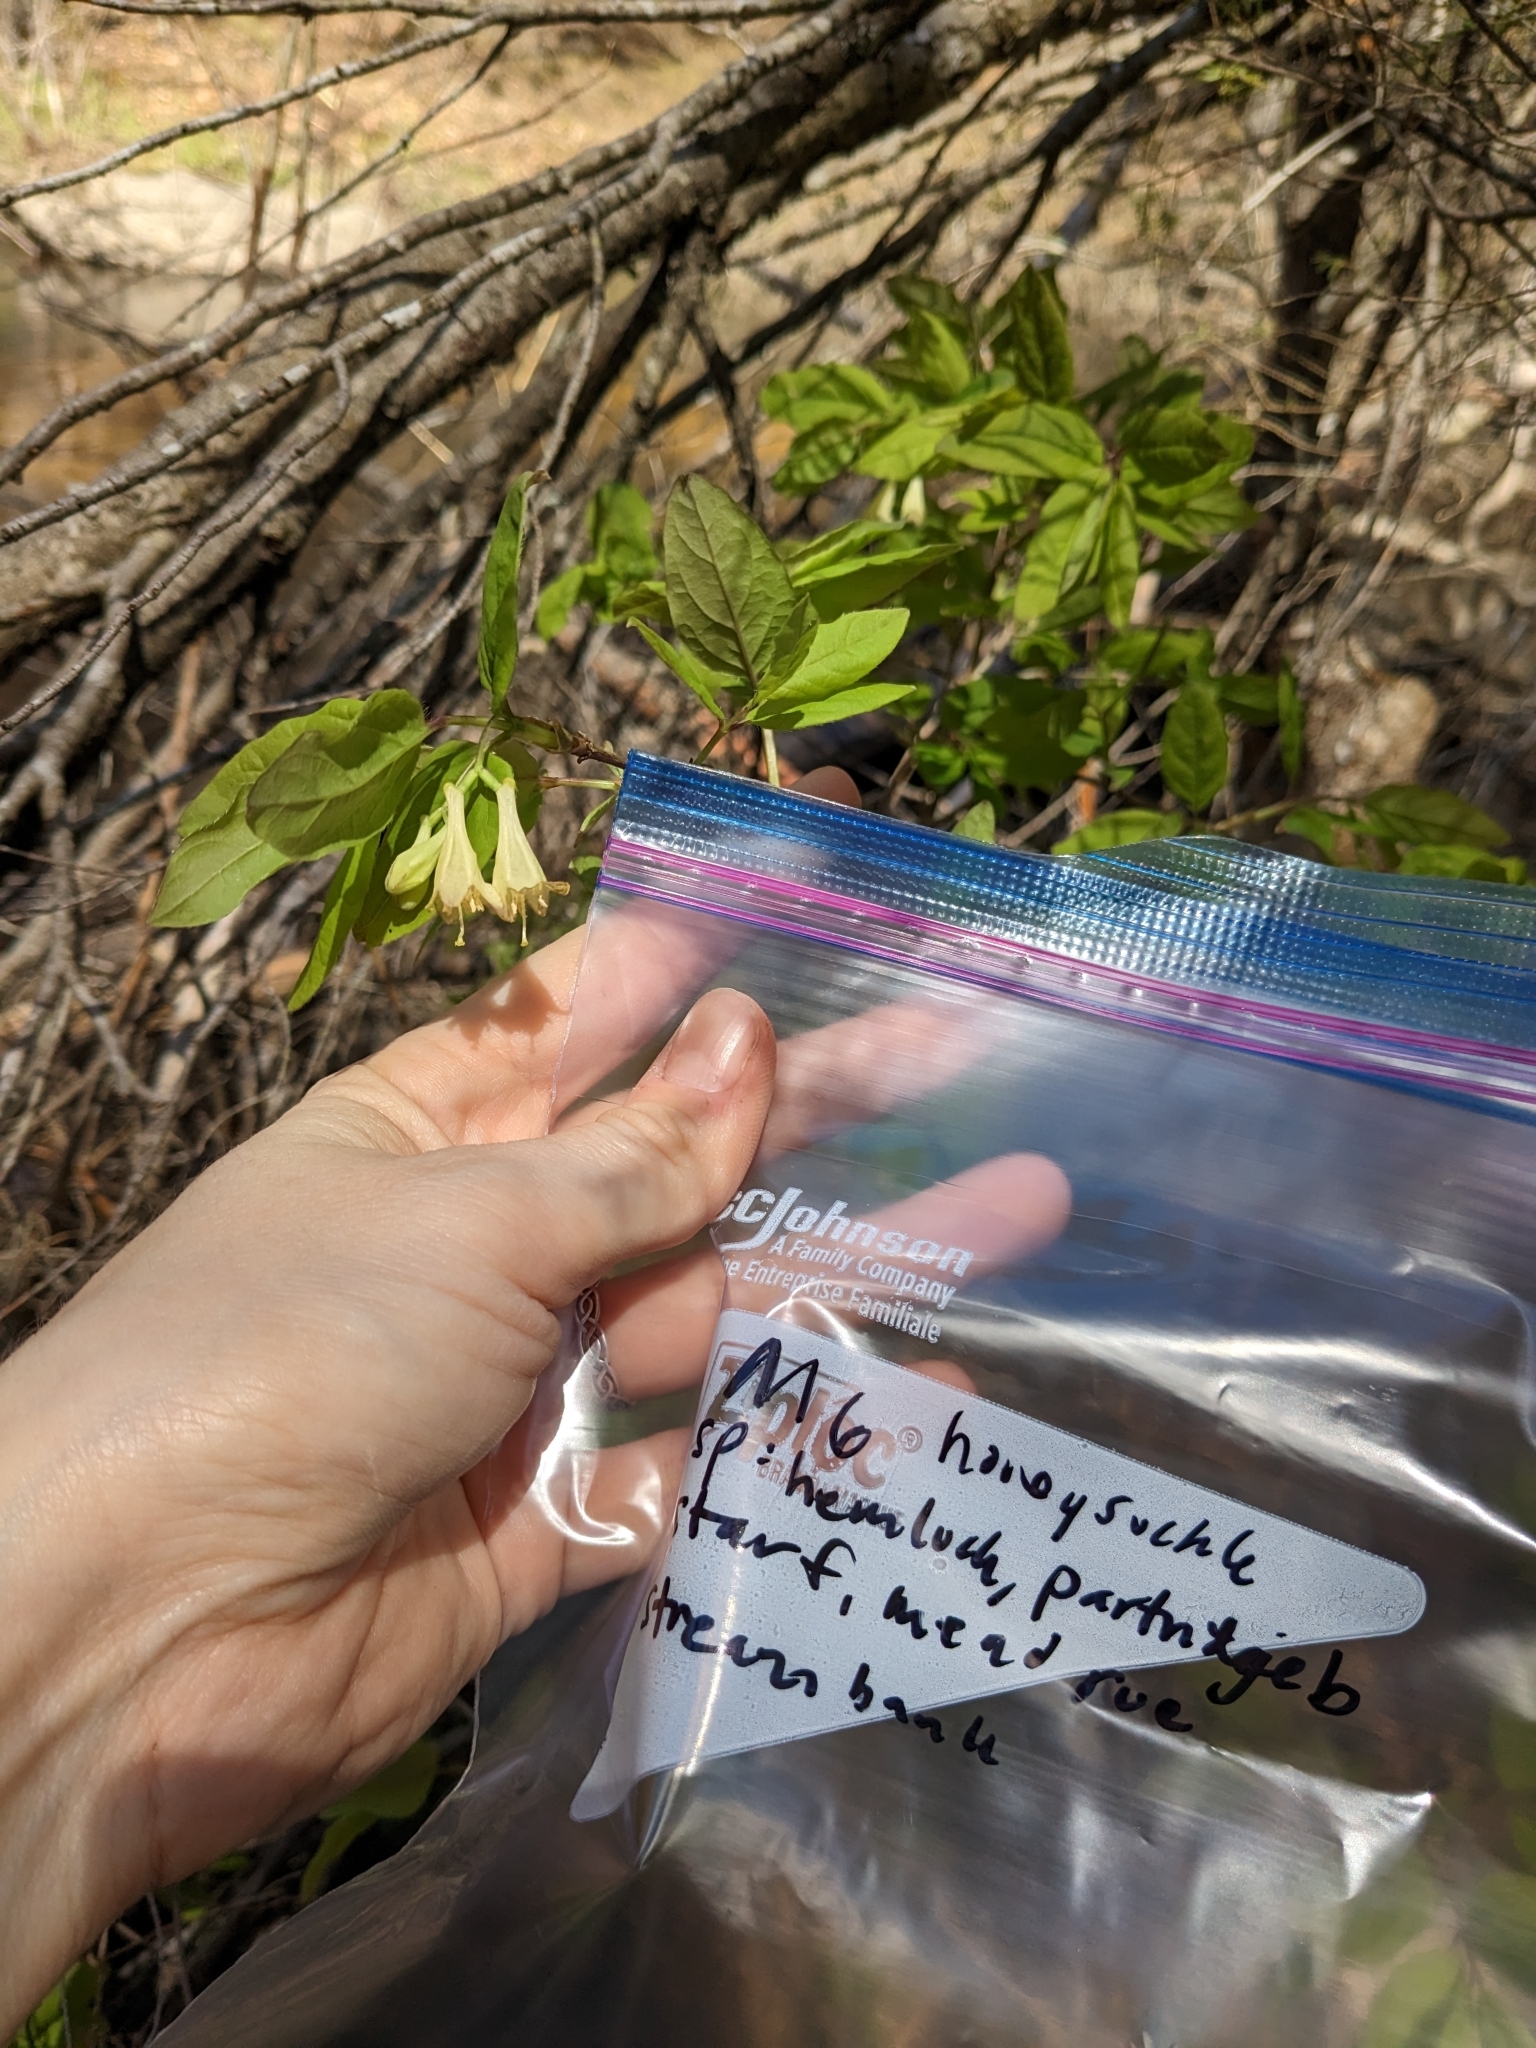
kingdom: Plantae
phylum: Tracheophyta
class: Magnoliopsida
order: Dipsacales
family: Caprifoliaceae
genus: Lonicera
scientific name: Lonicera canadensis
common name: American fly-honeysuckle
